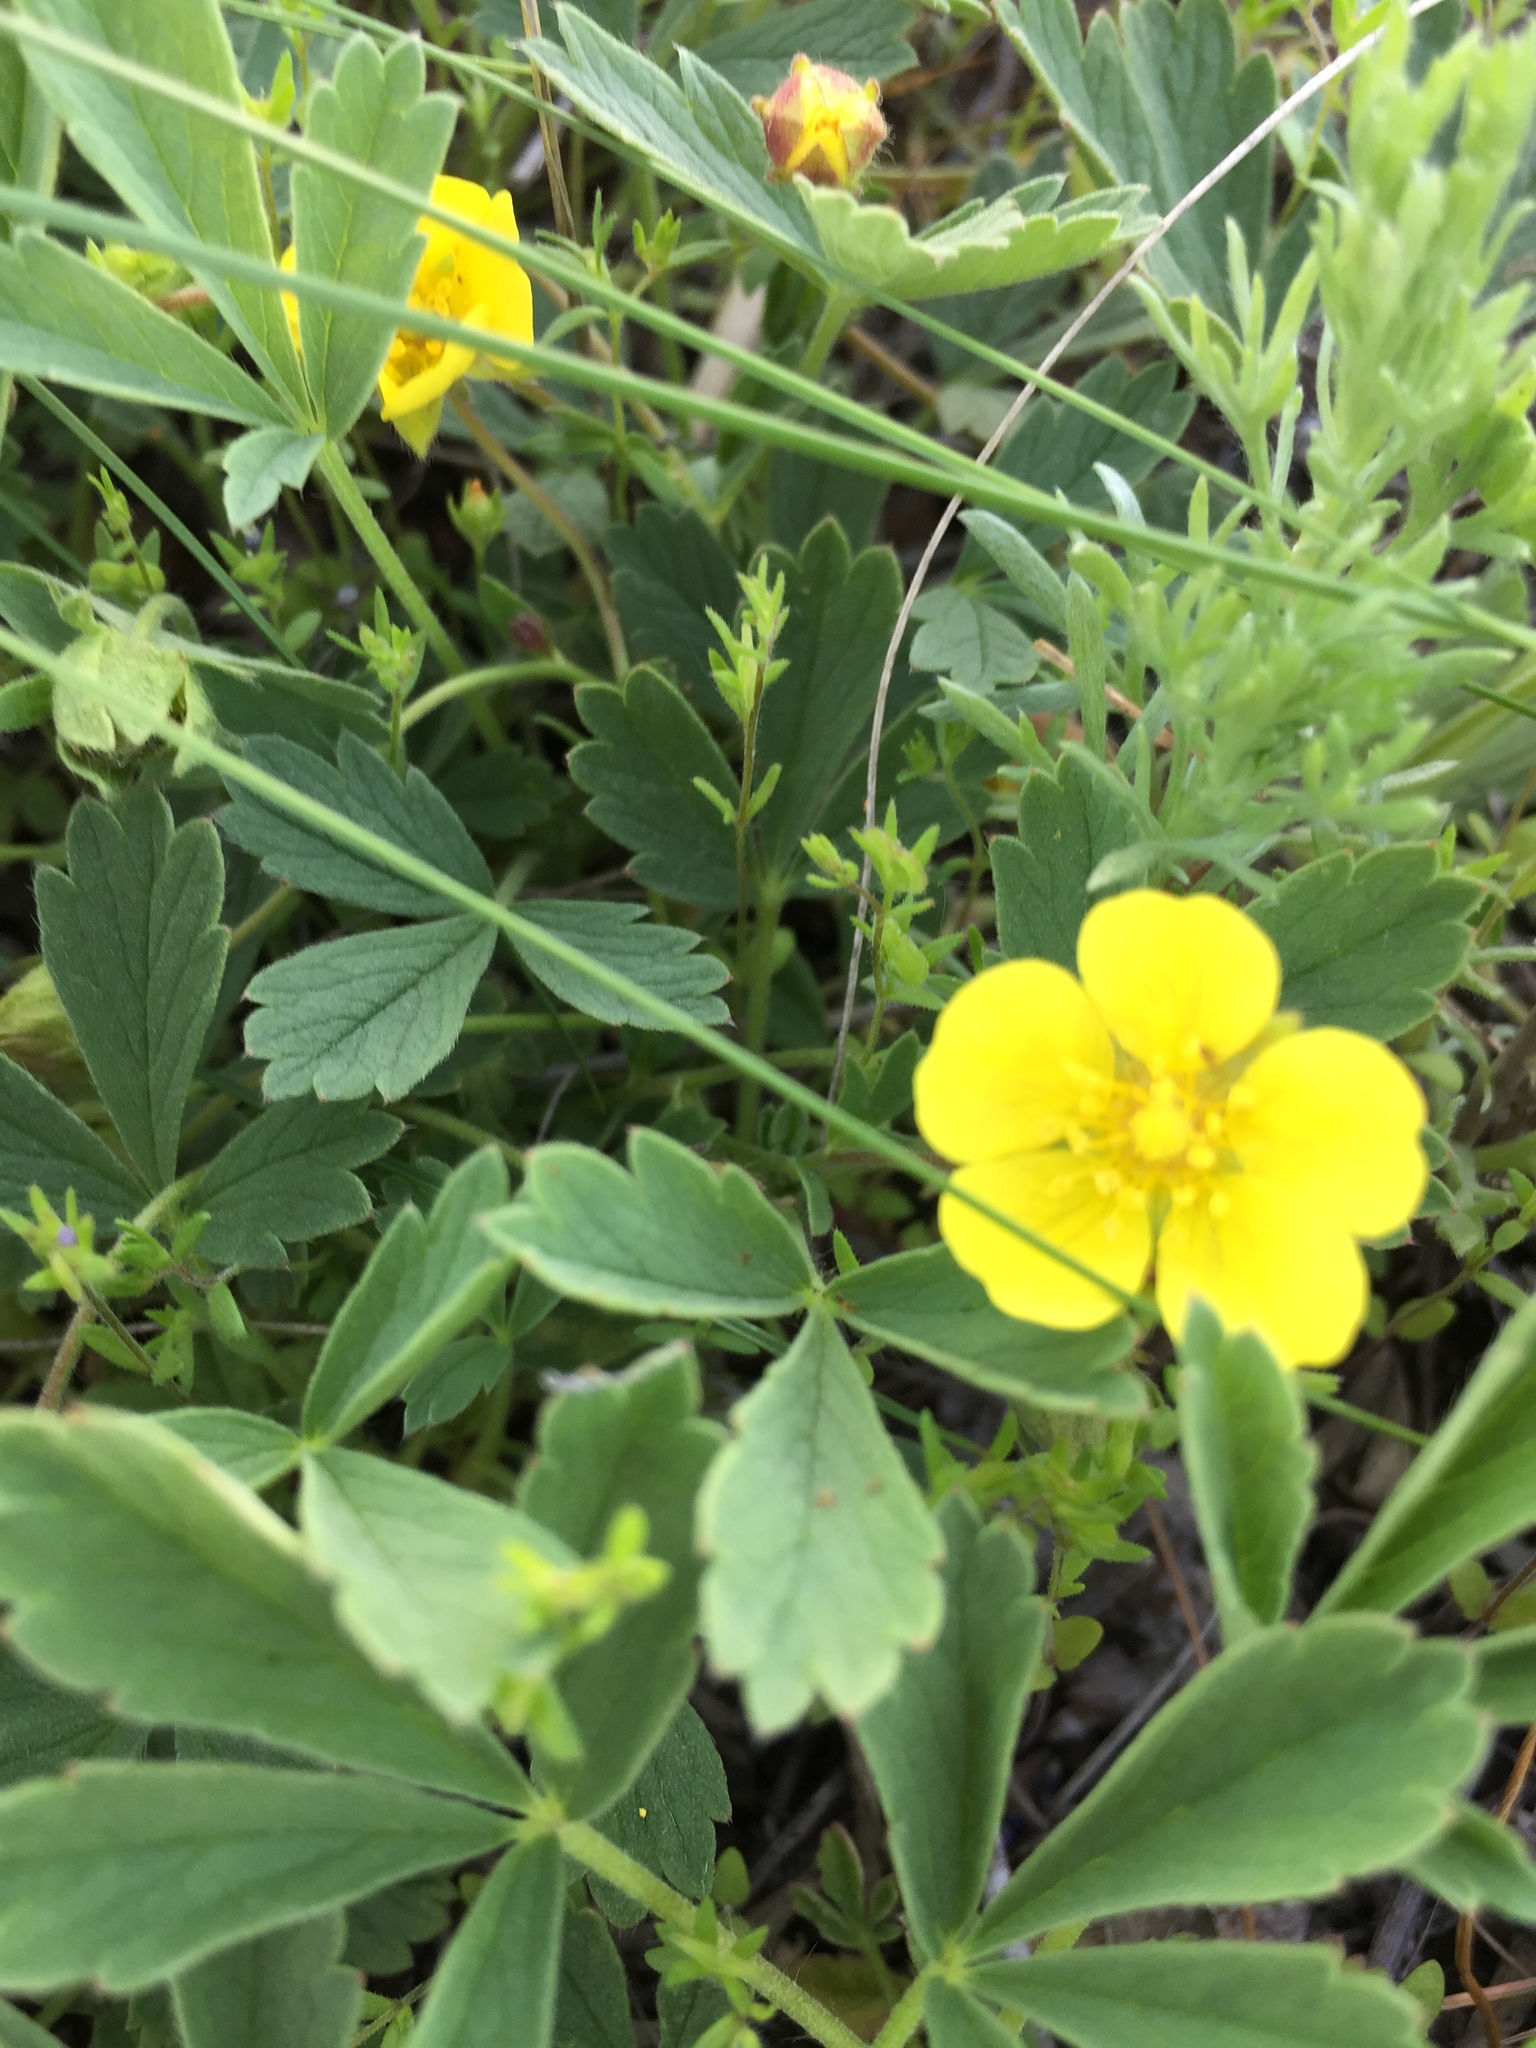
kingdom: Plantae
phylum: Tracheophyta
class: Magnoliopsida
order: Rosales
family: Rosaceae
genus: Potentilla
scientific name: Potentilla incana
